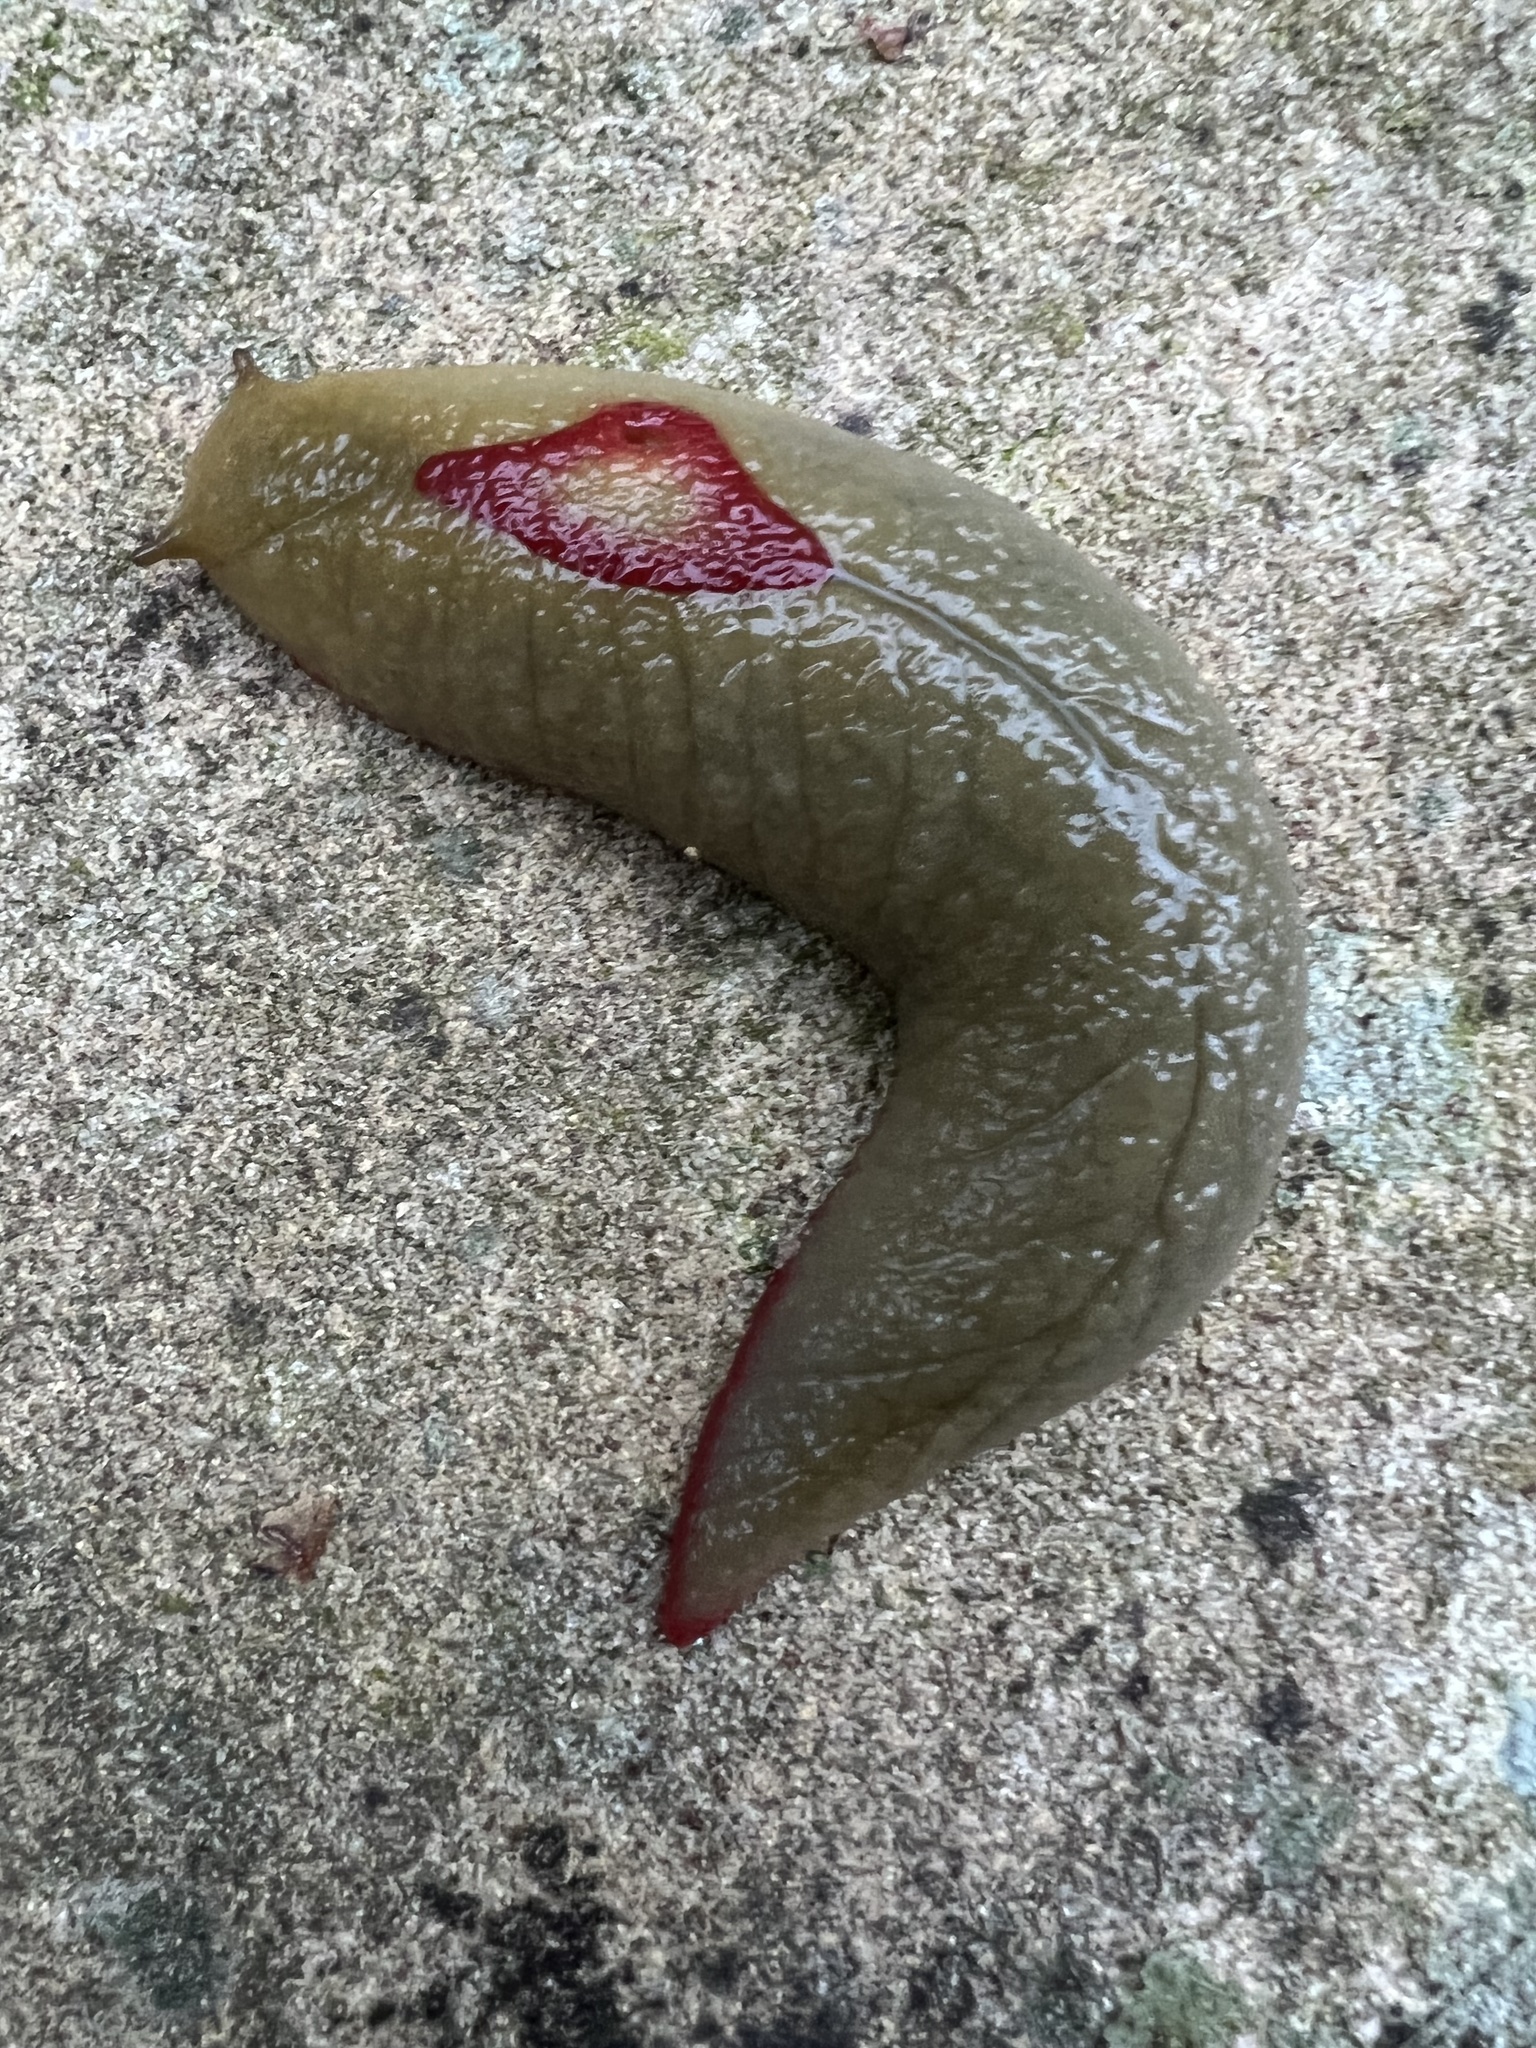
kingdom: Animalia
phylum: Mollusca
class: Gastropoda
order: Stylommatophora
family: Athoracophoridae
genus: Triboniophorus
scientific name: Triboniophorus graeffei
